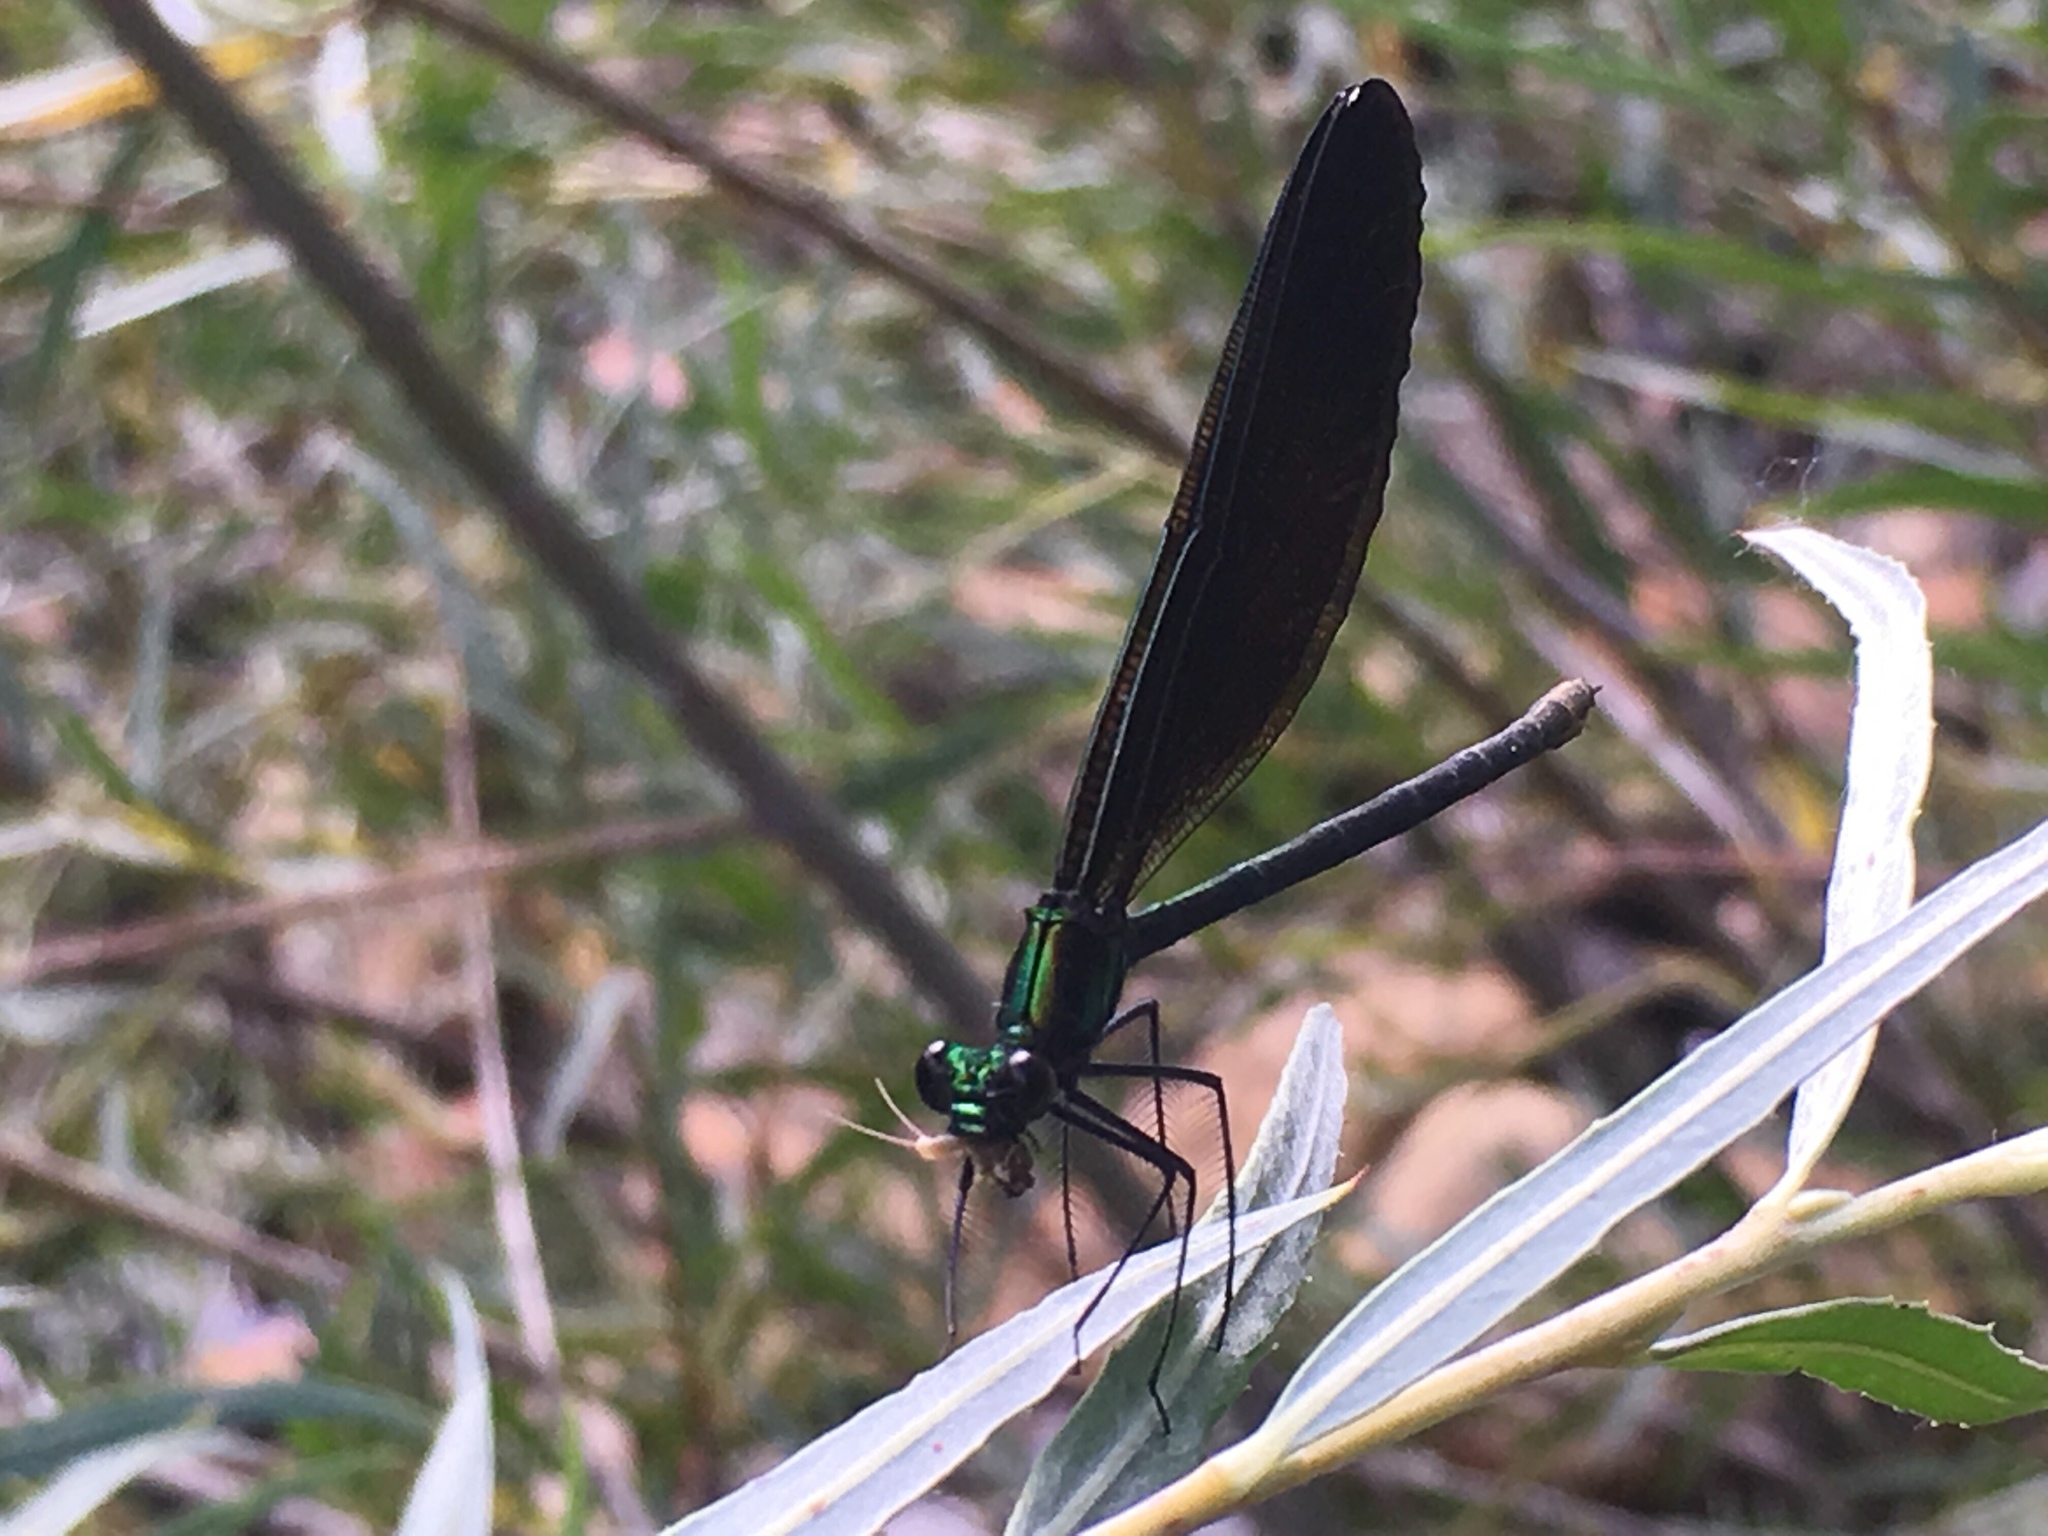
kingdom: Animalia
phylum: Arthropoda
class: Insecta
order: Odonata
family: Calopterygidae
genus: Calopteryx
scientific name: Calopteryx maculata
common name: Ebony jewelwing
